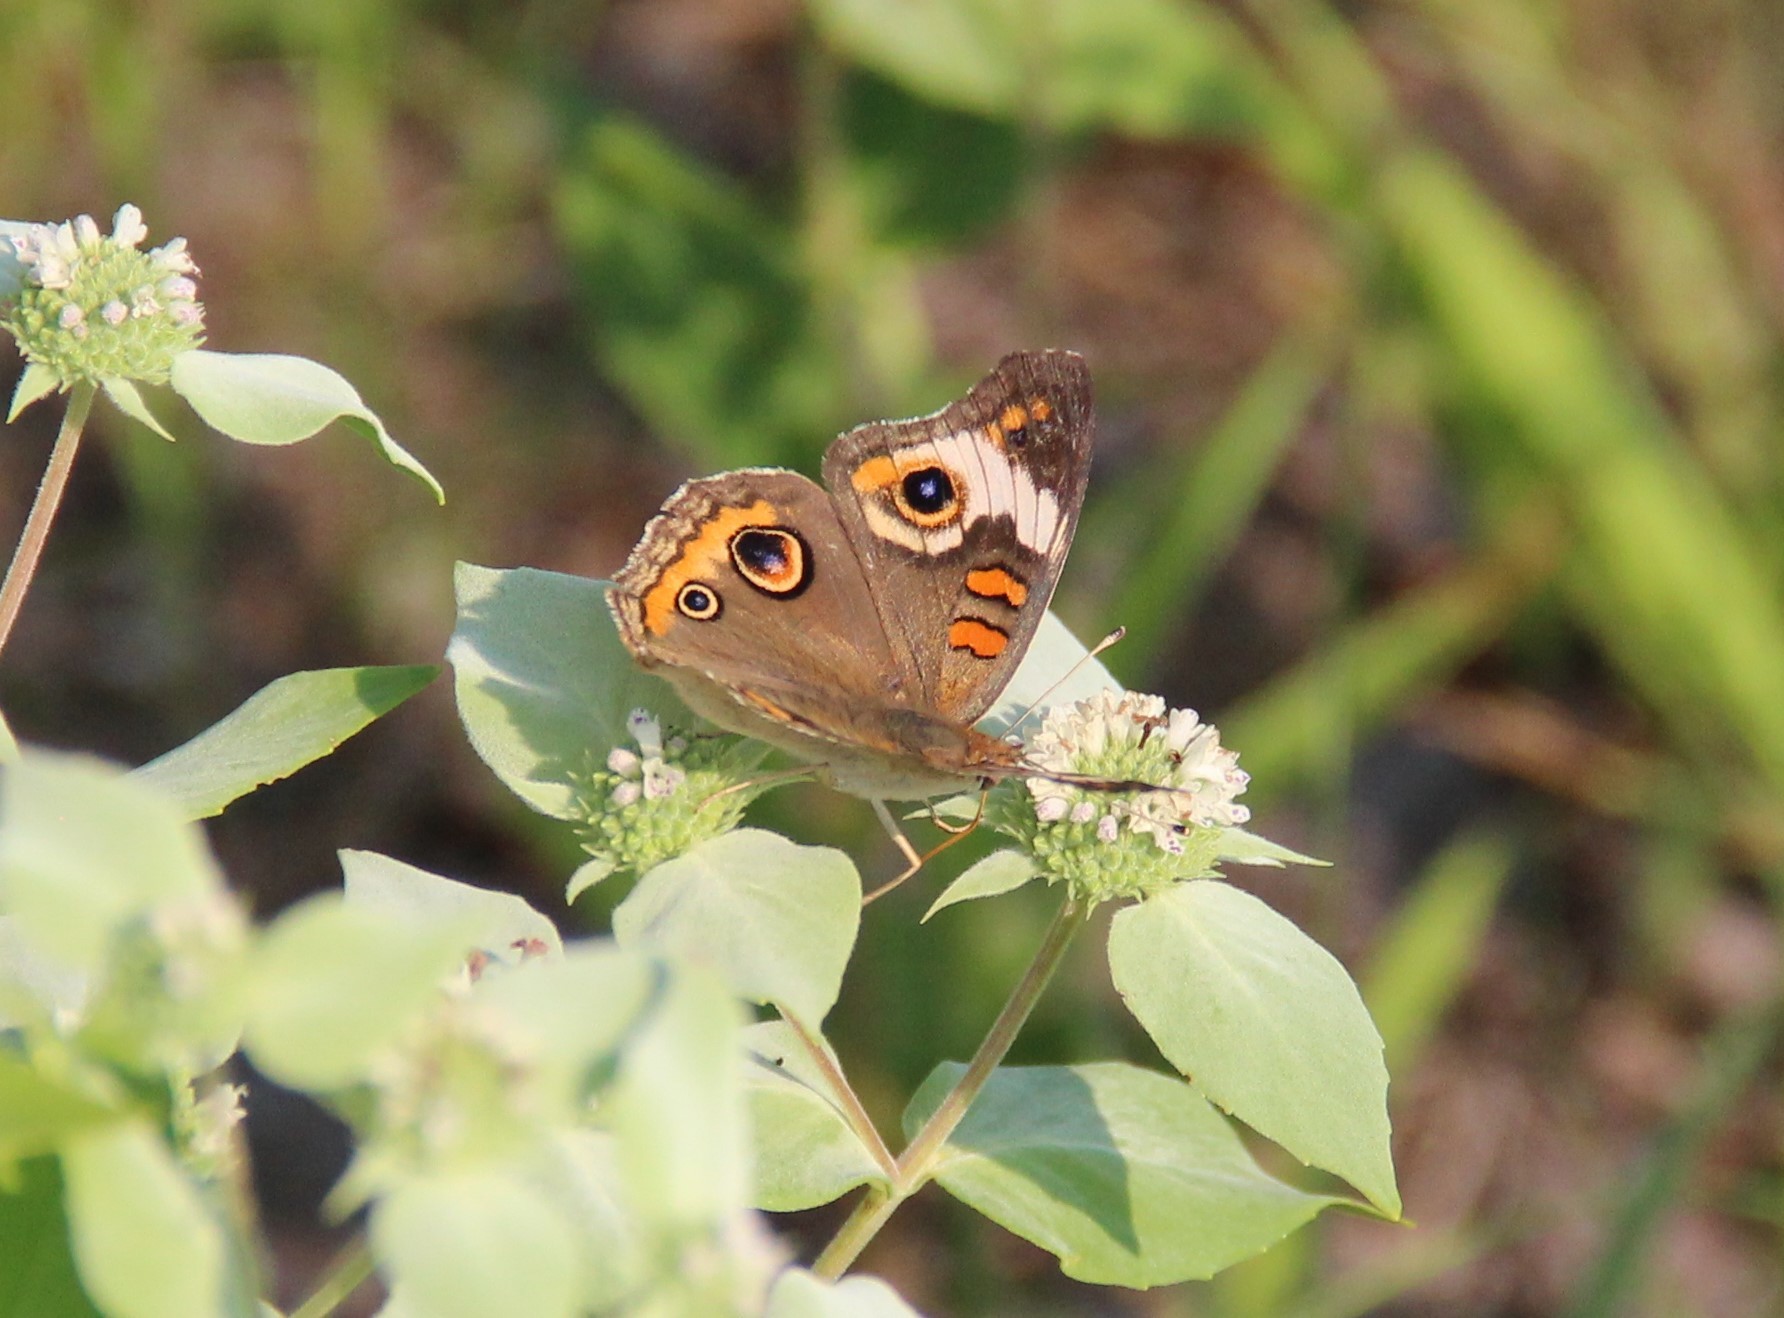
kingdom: Animalia
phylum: Arthropoda
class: Insecta
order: Lepidoptera
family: Nymphalidae
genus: Junonia
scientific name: Junonia coenia
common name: Common buckeye
